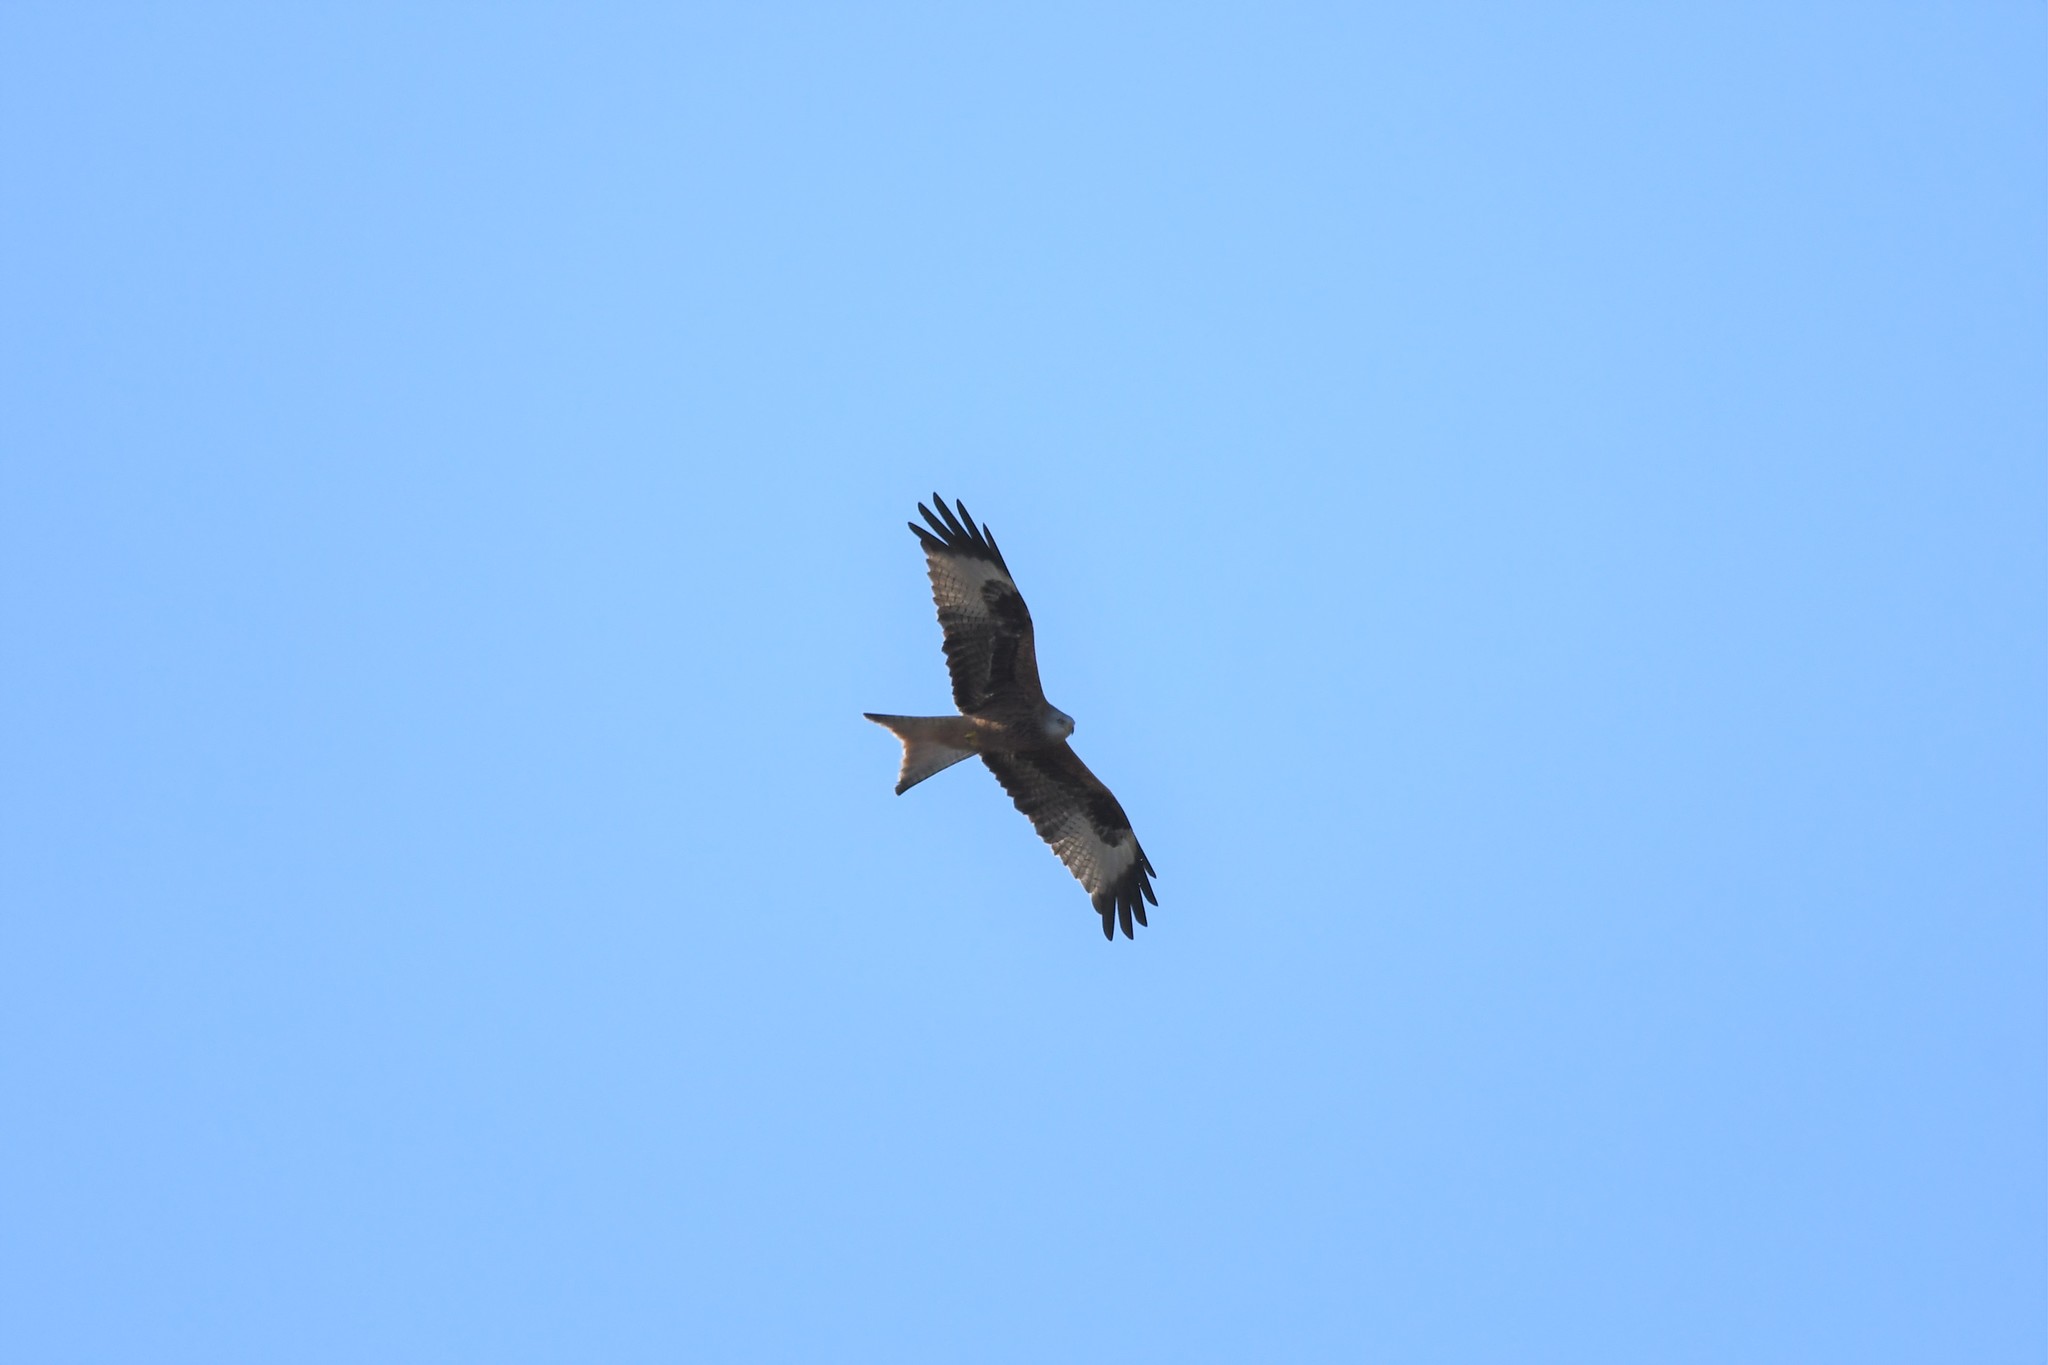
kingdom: Animalia
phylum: Chordata
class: Aves
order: Accipitriformes
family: Accipitridae
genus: Milvus
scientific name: Milvus milvus
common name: Red kite
